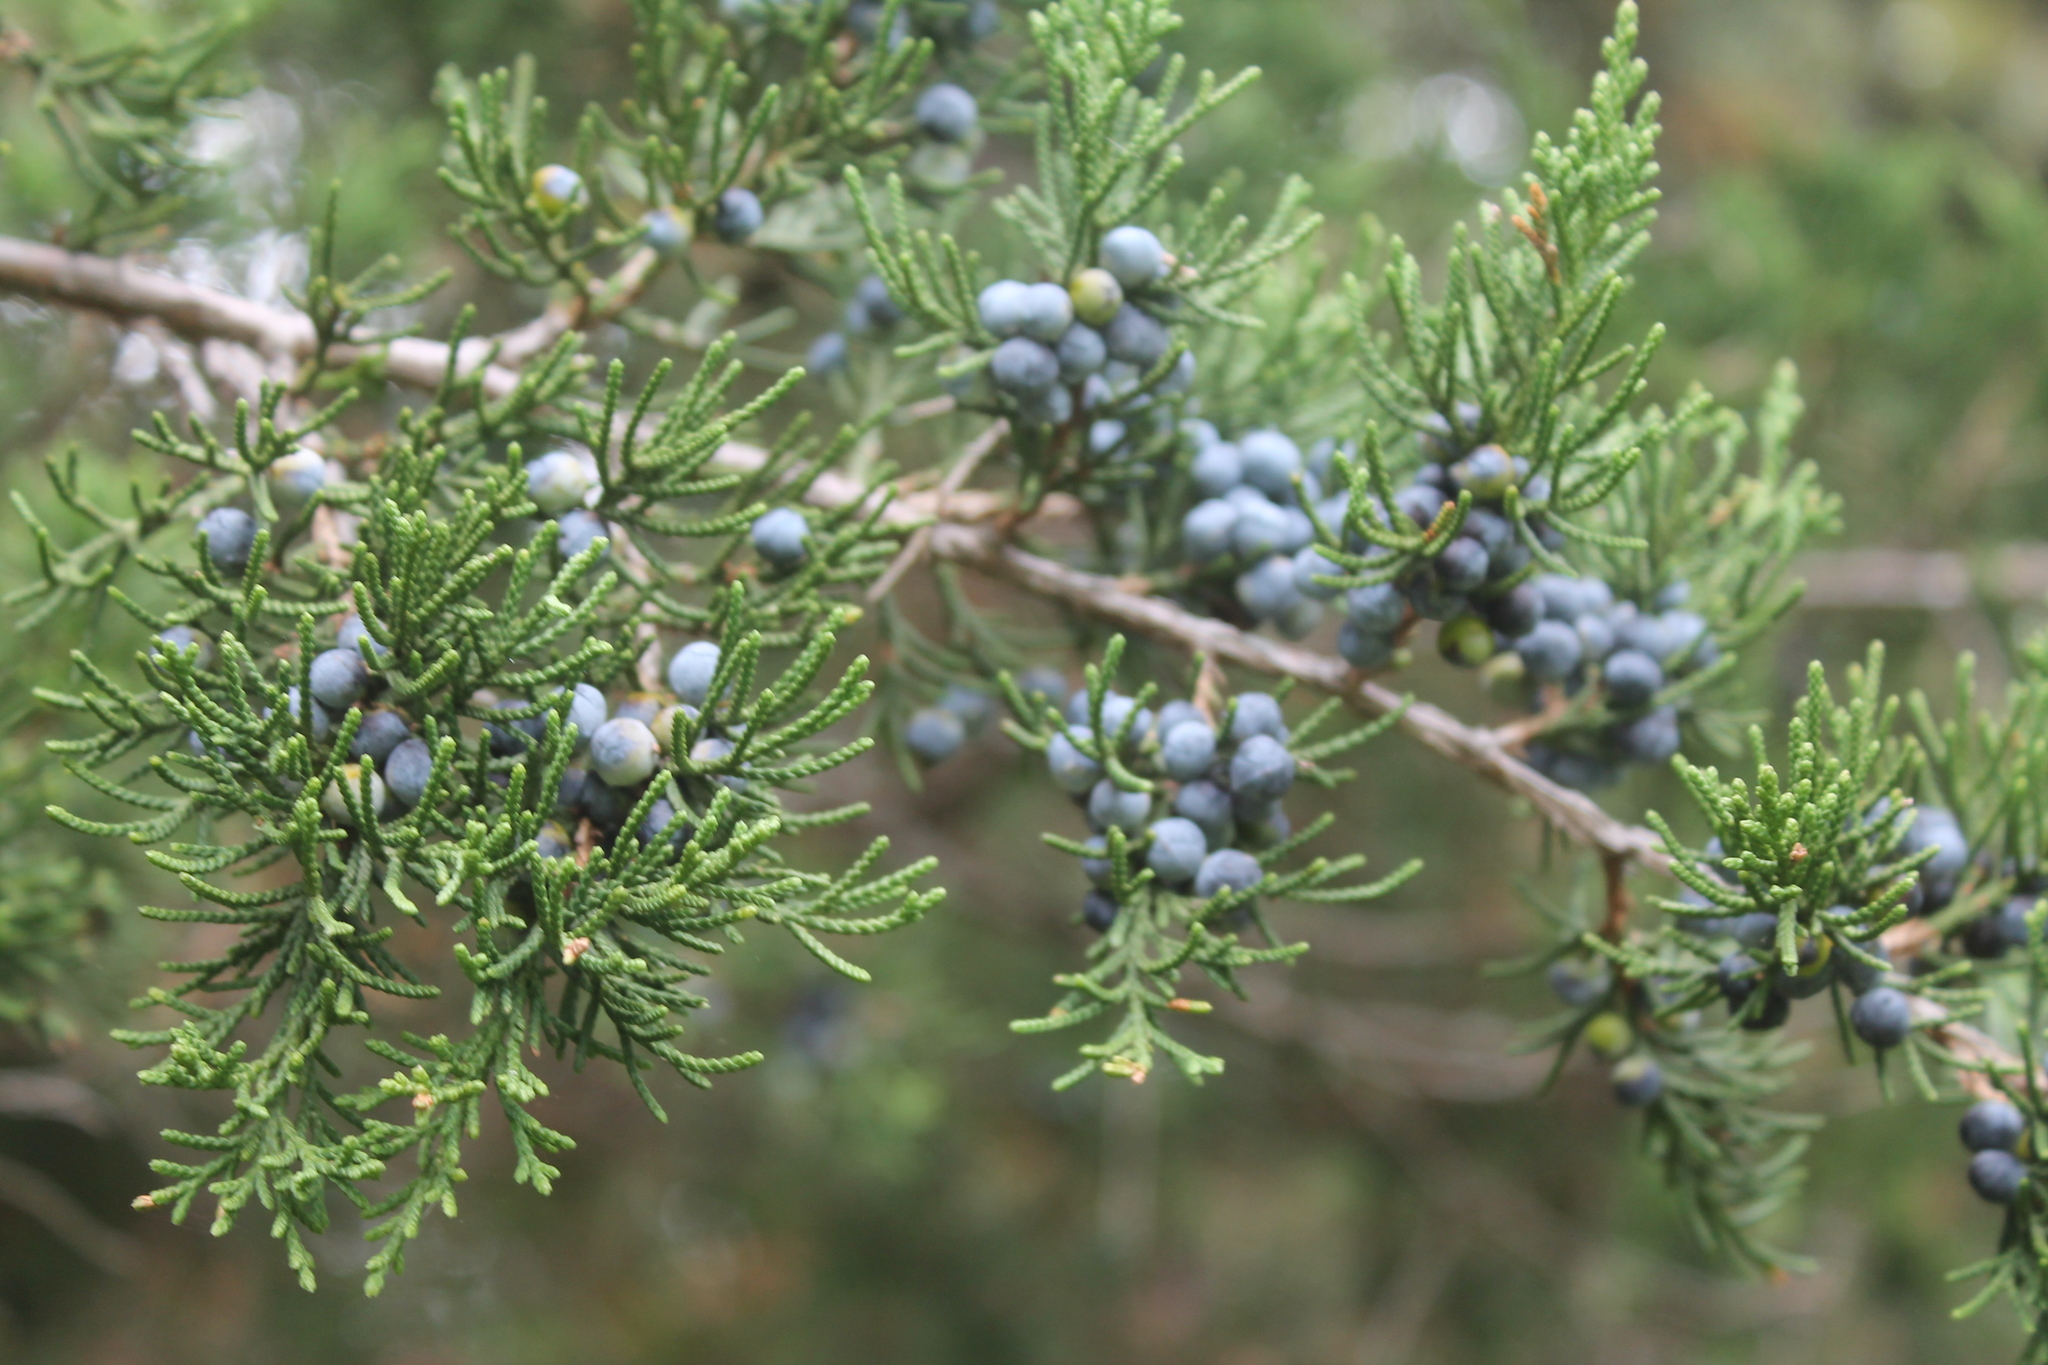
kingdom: Plantae
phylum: Tracheophyta
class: Pinopsida
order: Pinales
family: Cupressaceae
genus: Juniperus
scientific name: Juniperus virginiana
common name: Red juniper
